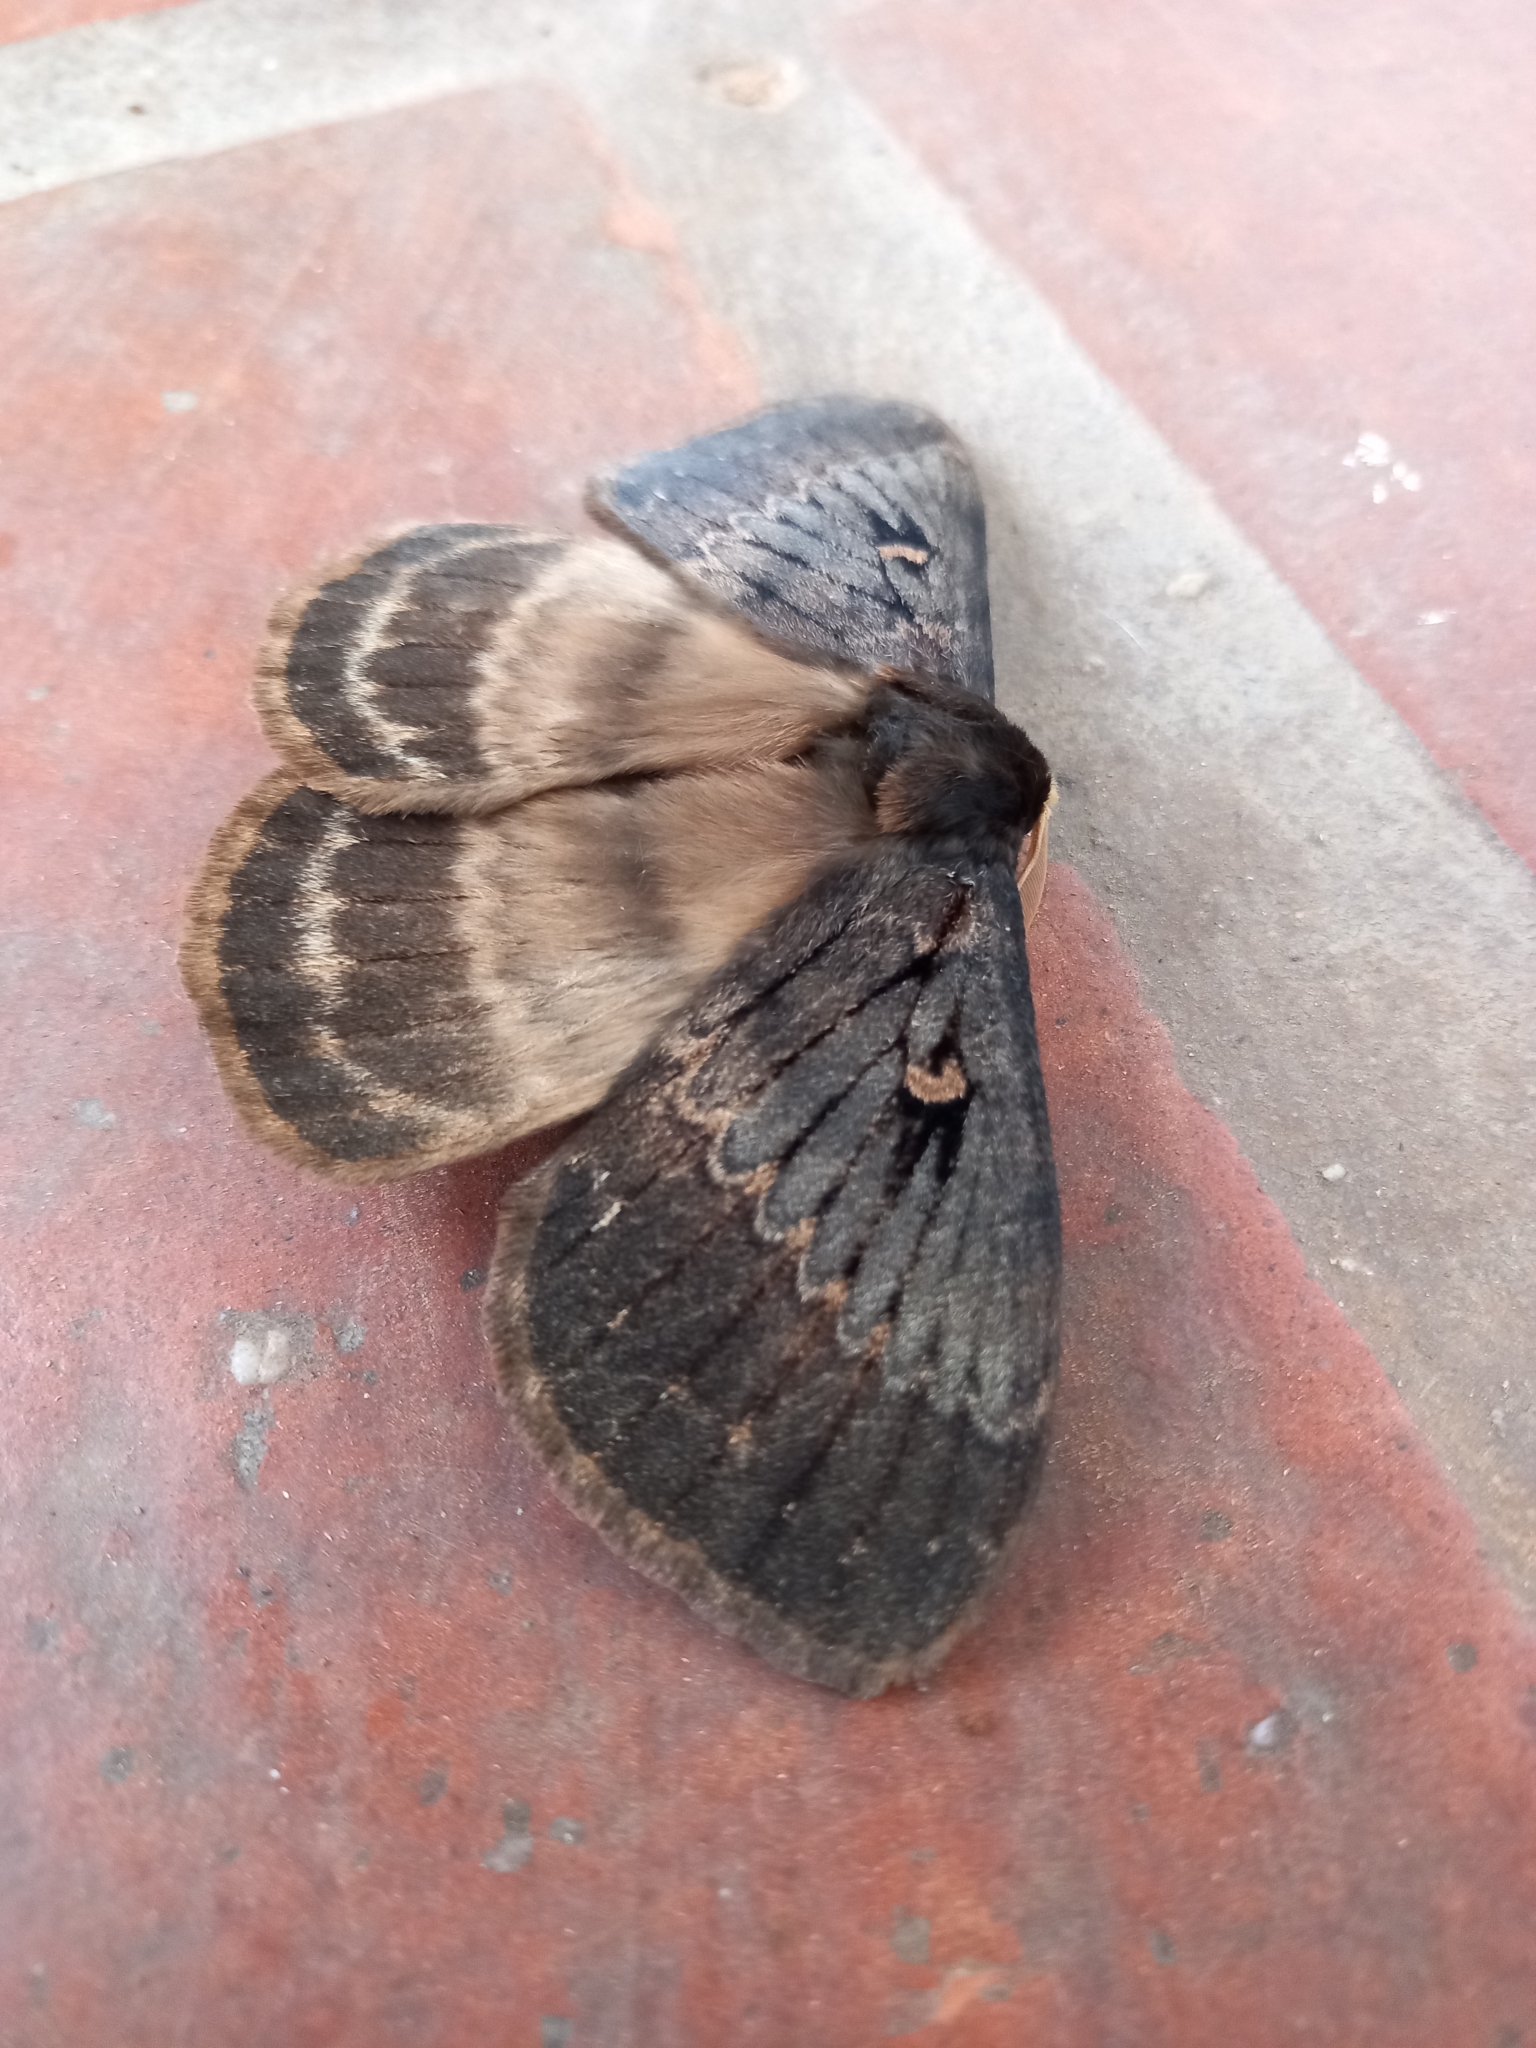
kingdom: Animalia
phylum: Arthropoda
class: Insecta
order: Lepidoptera
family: Eupterotidae
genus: Jana
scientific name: Jana tantalus
